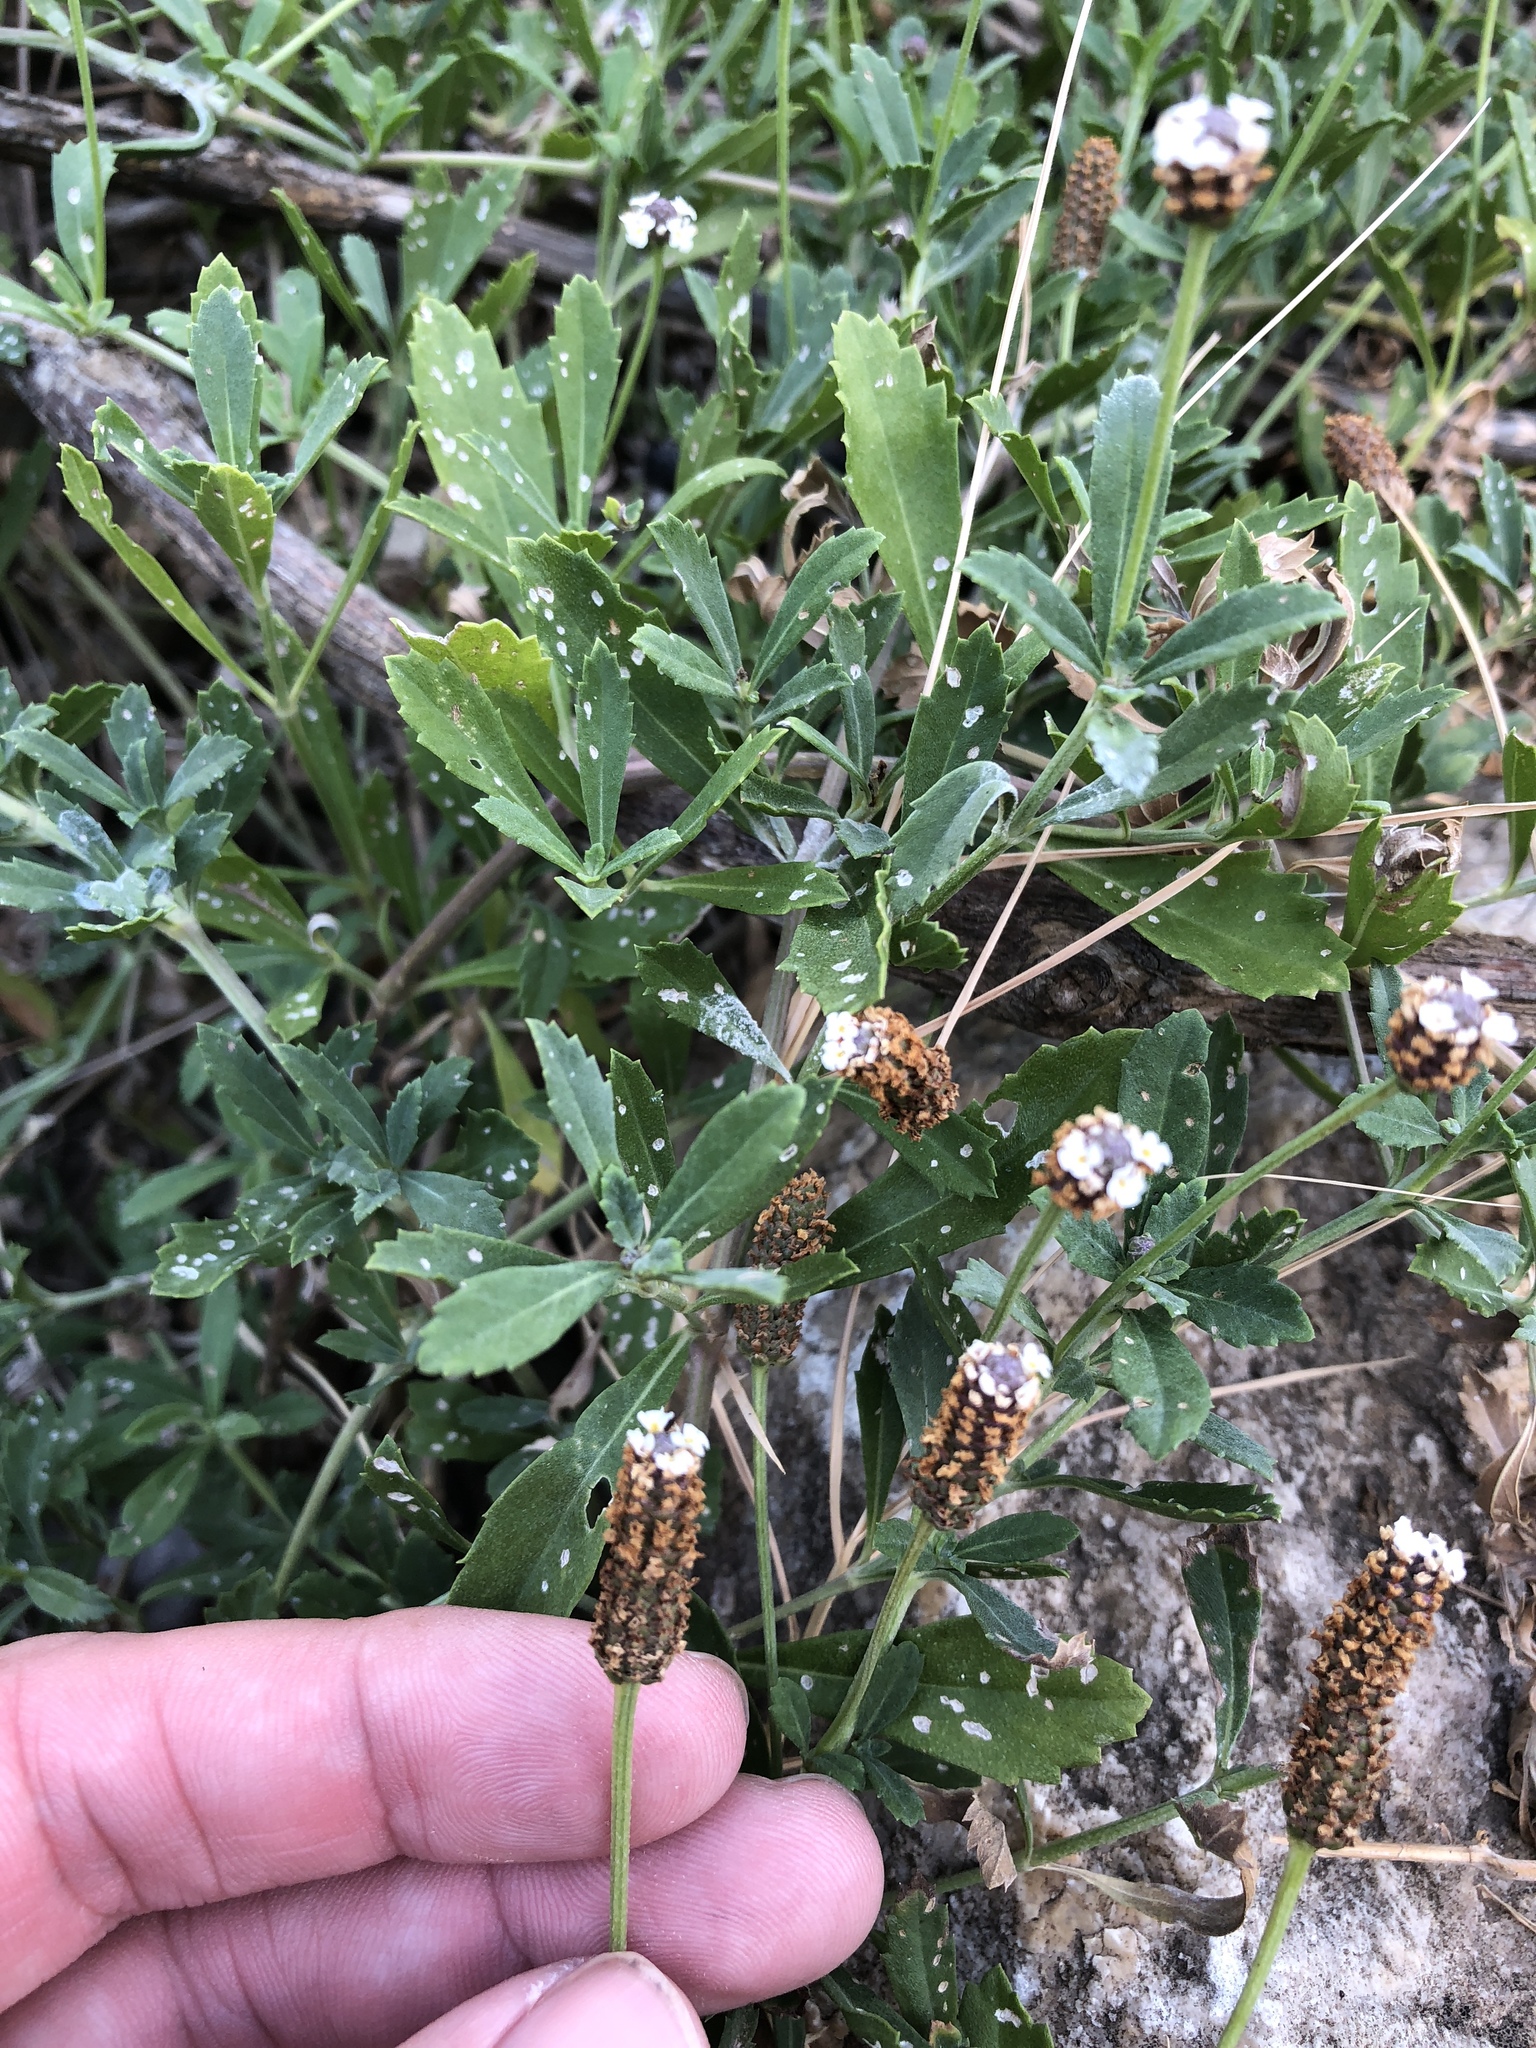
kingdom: Plantae
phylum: Tracheophyta
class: Magnoliopsida
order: Lamiales
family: Verbenaceae
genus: Phyla
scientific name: Phyla nodiflora
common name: Frogfruit
